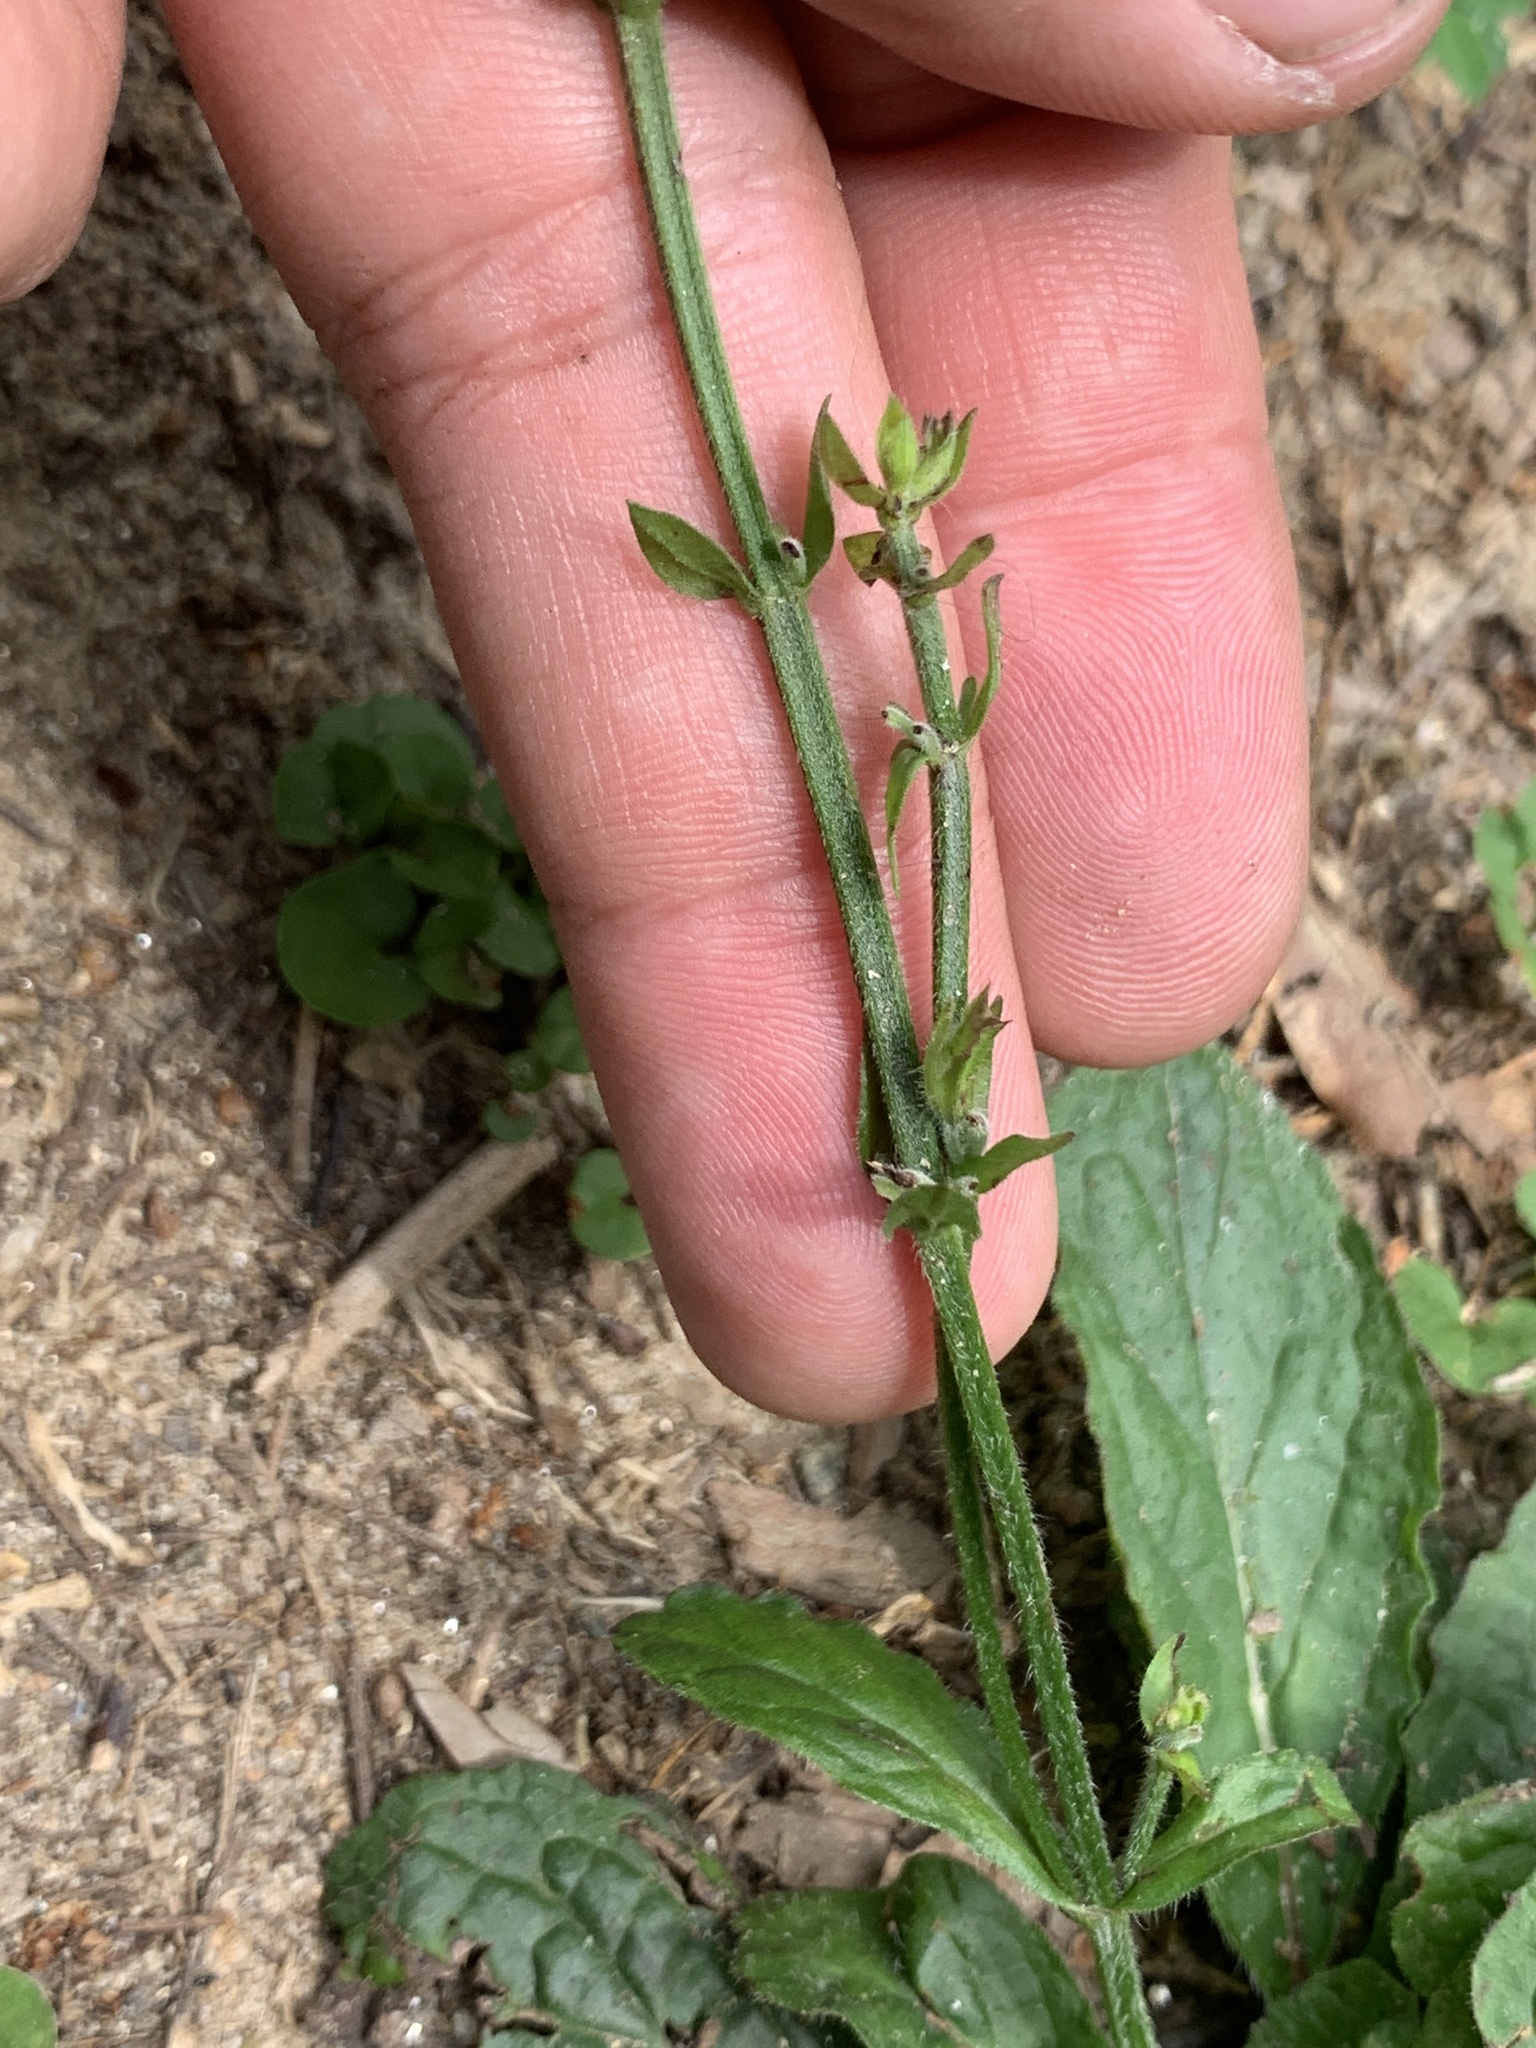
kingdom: Plantae
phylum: Tracheophyta
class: Magnoliopsida
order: Lamiales
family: Lamiaceae
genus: Salvia
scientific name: Salvia lyrata
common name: Cancerweed
